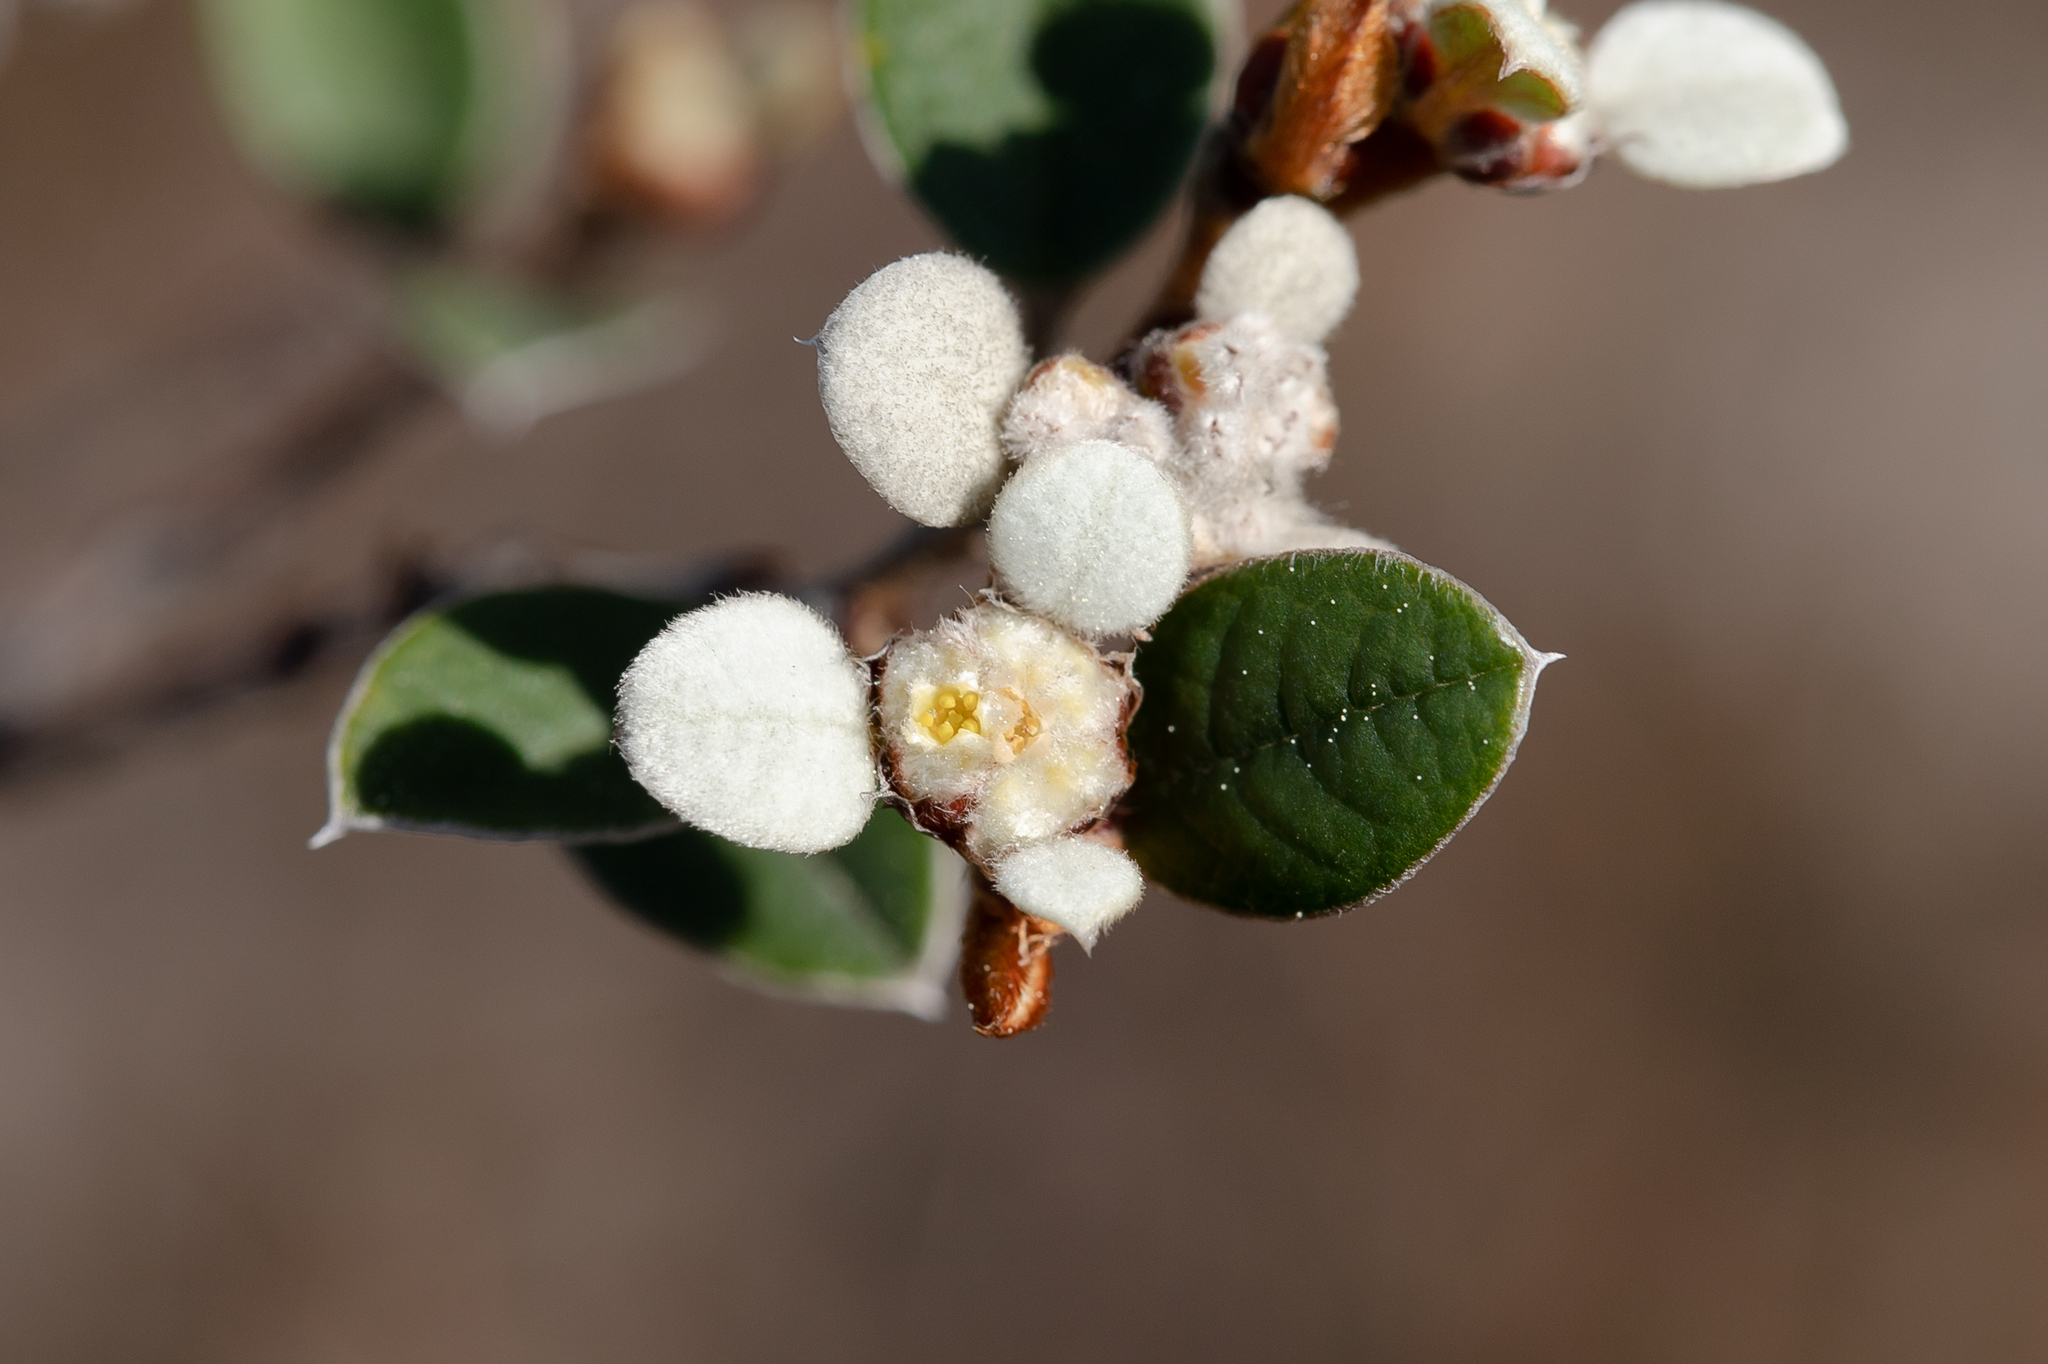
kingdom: Plantae
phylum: Tracheophyta
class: Magnoliopsida
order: Rosales
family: Rhamnaceae
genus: Spyridium
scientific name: Spyridium thymifolium
